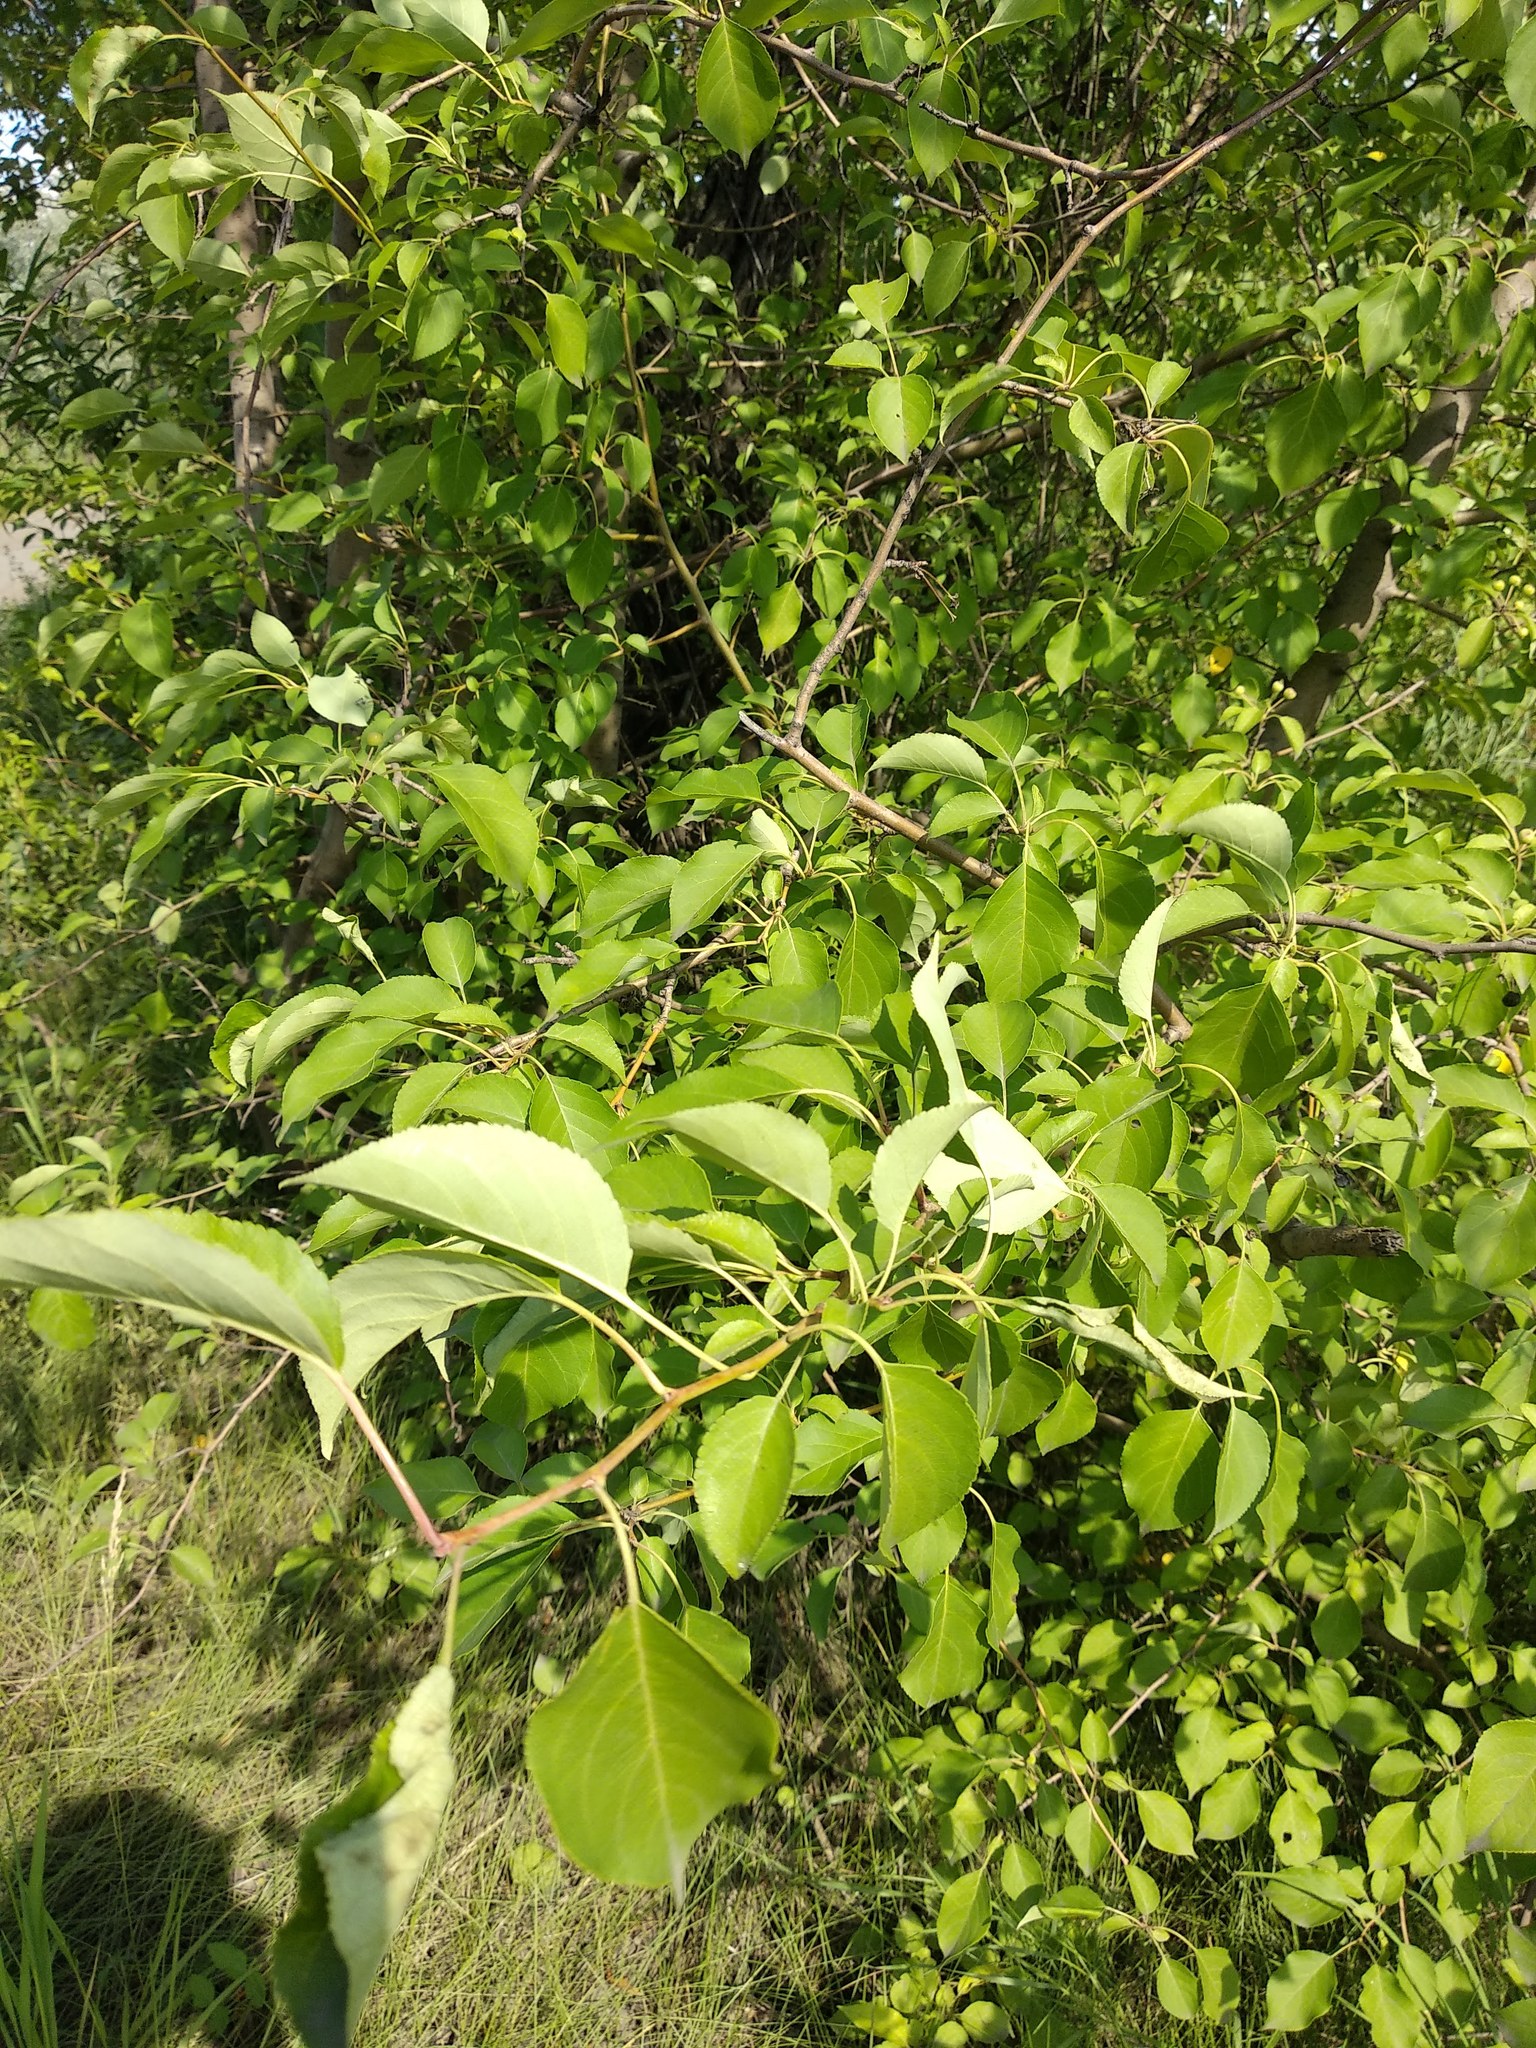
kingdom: Plantae
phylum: Tracheophyta
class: Magnoliopsida
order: Rosales
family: Rosaceae
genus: Malus
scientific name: Malus baccata
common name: Siberian crab
